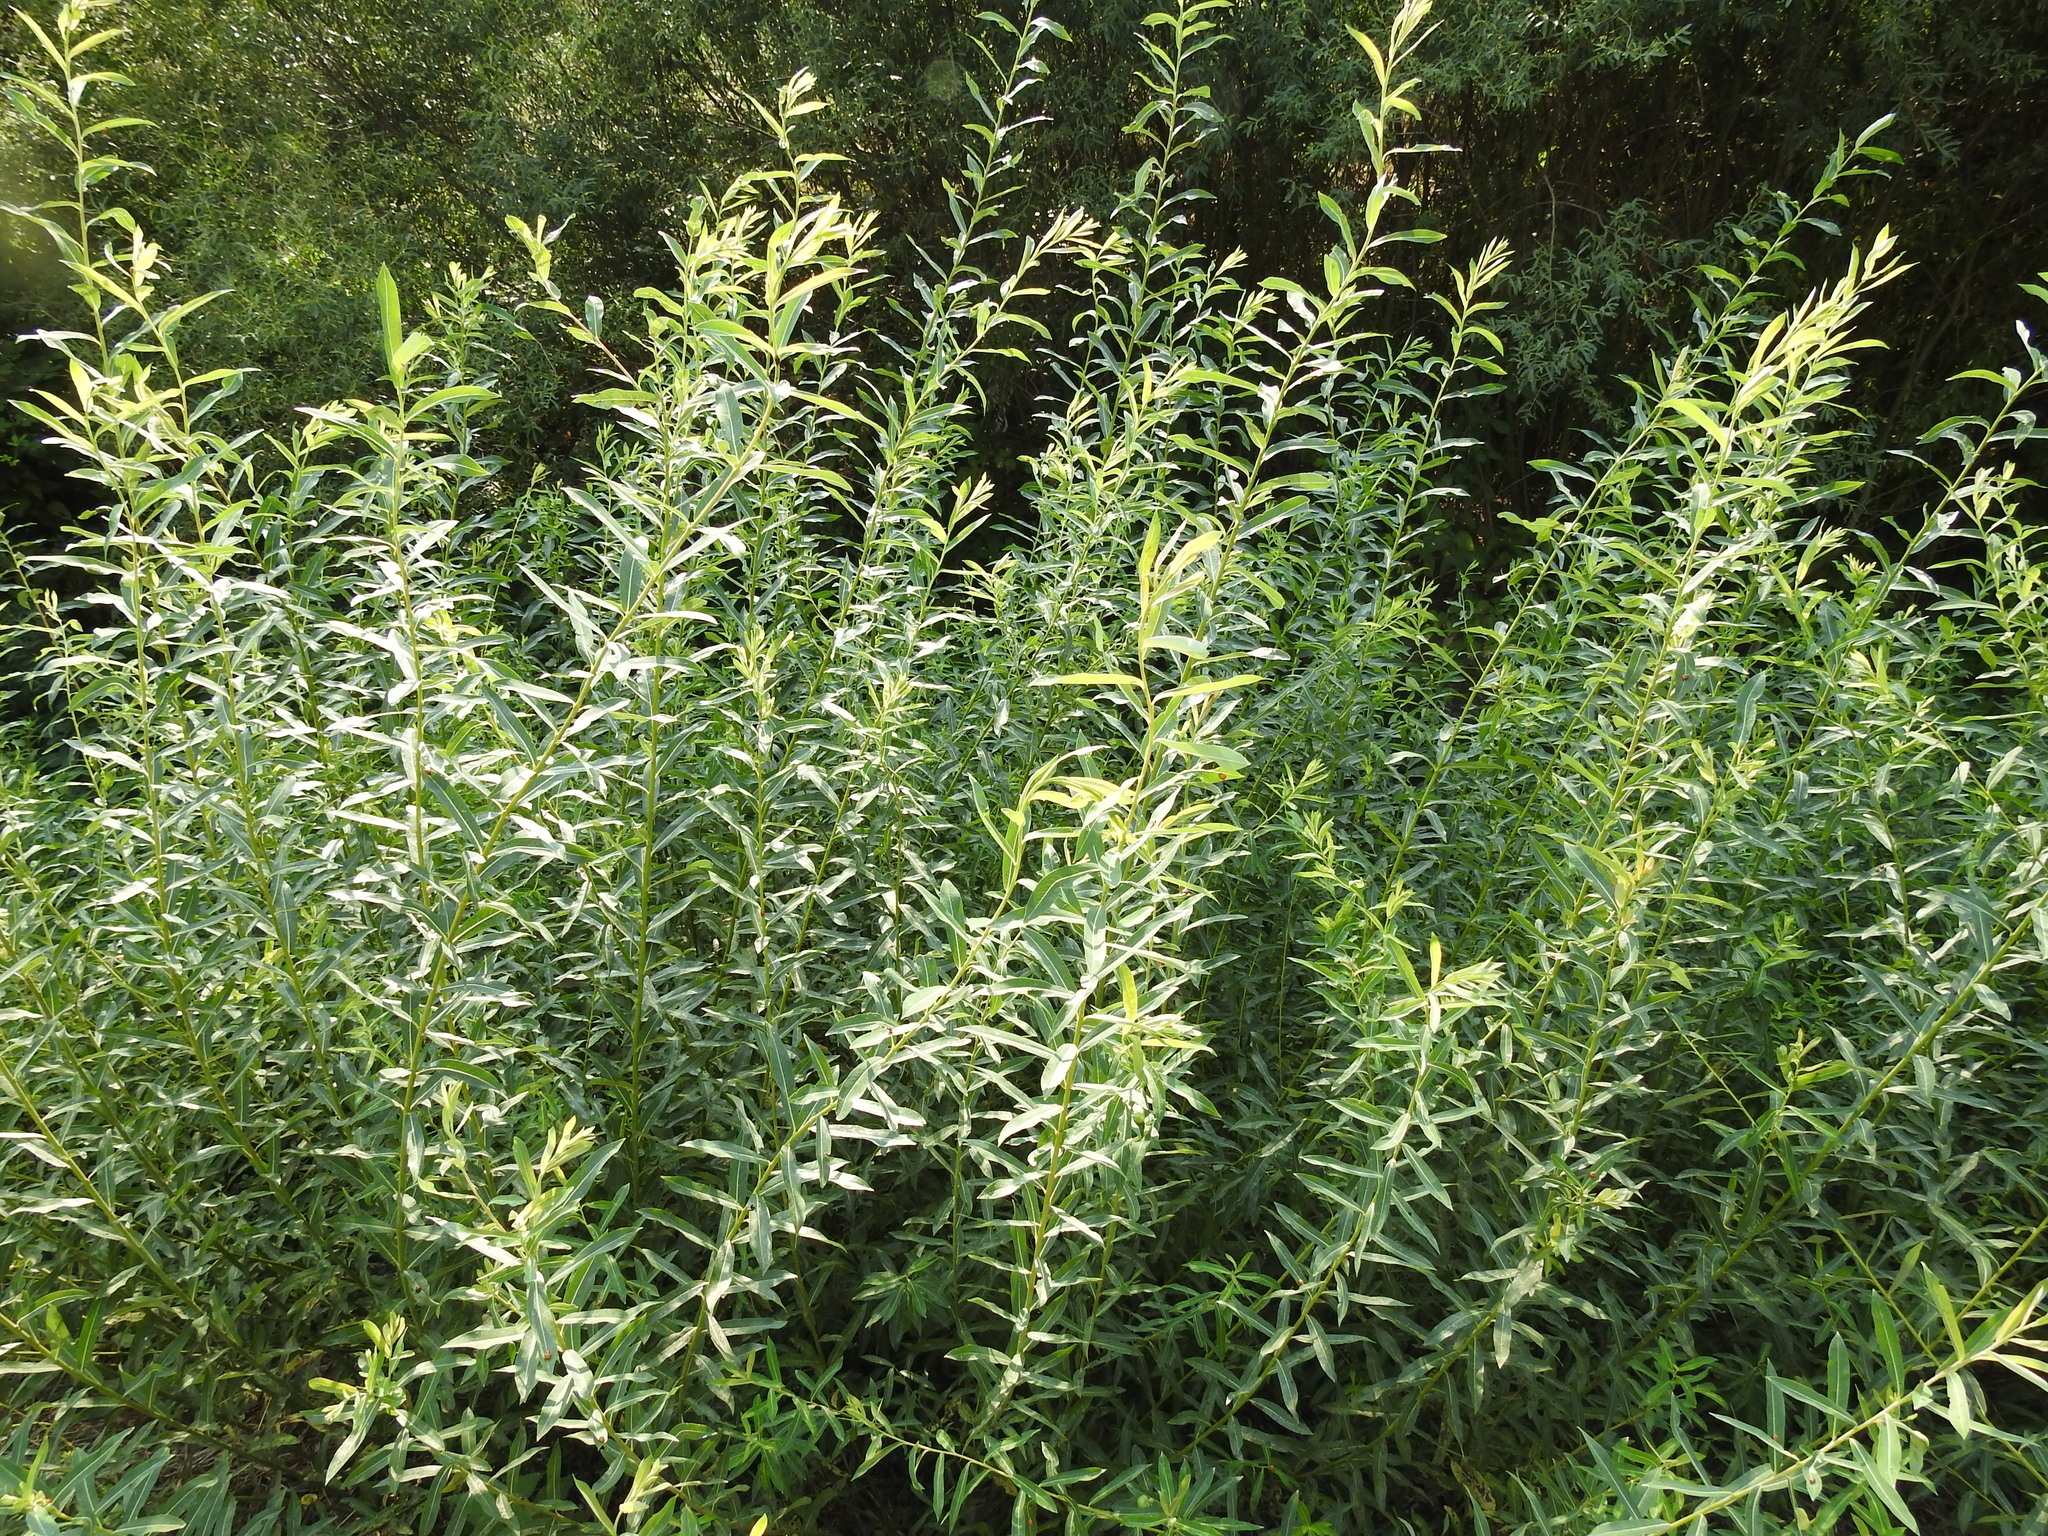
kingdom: Plantae
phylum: Tracheophyta
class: Magnoliopsida
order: Malpighiales
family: Salicaceae
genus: Salix
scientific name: Salix purpurea
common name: Purple willow
